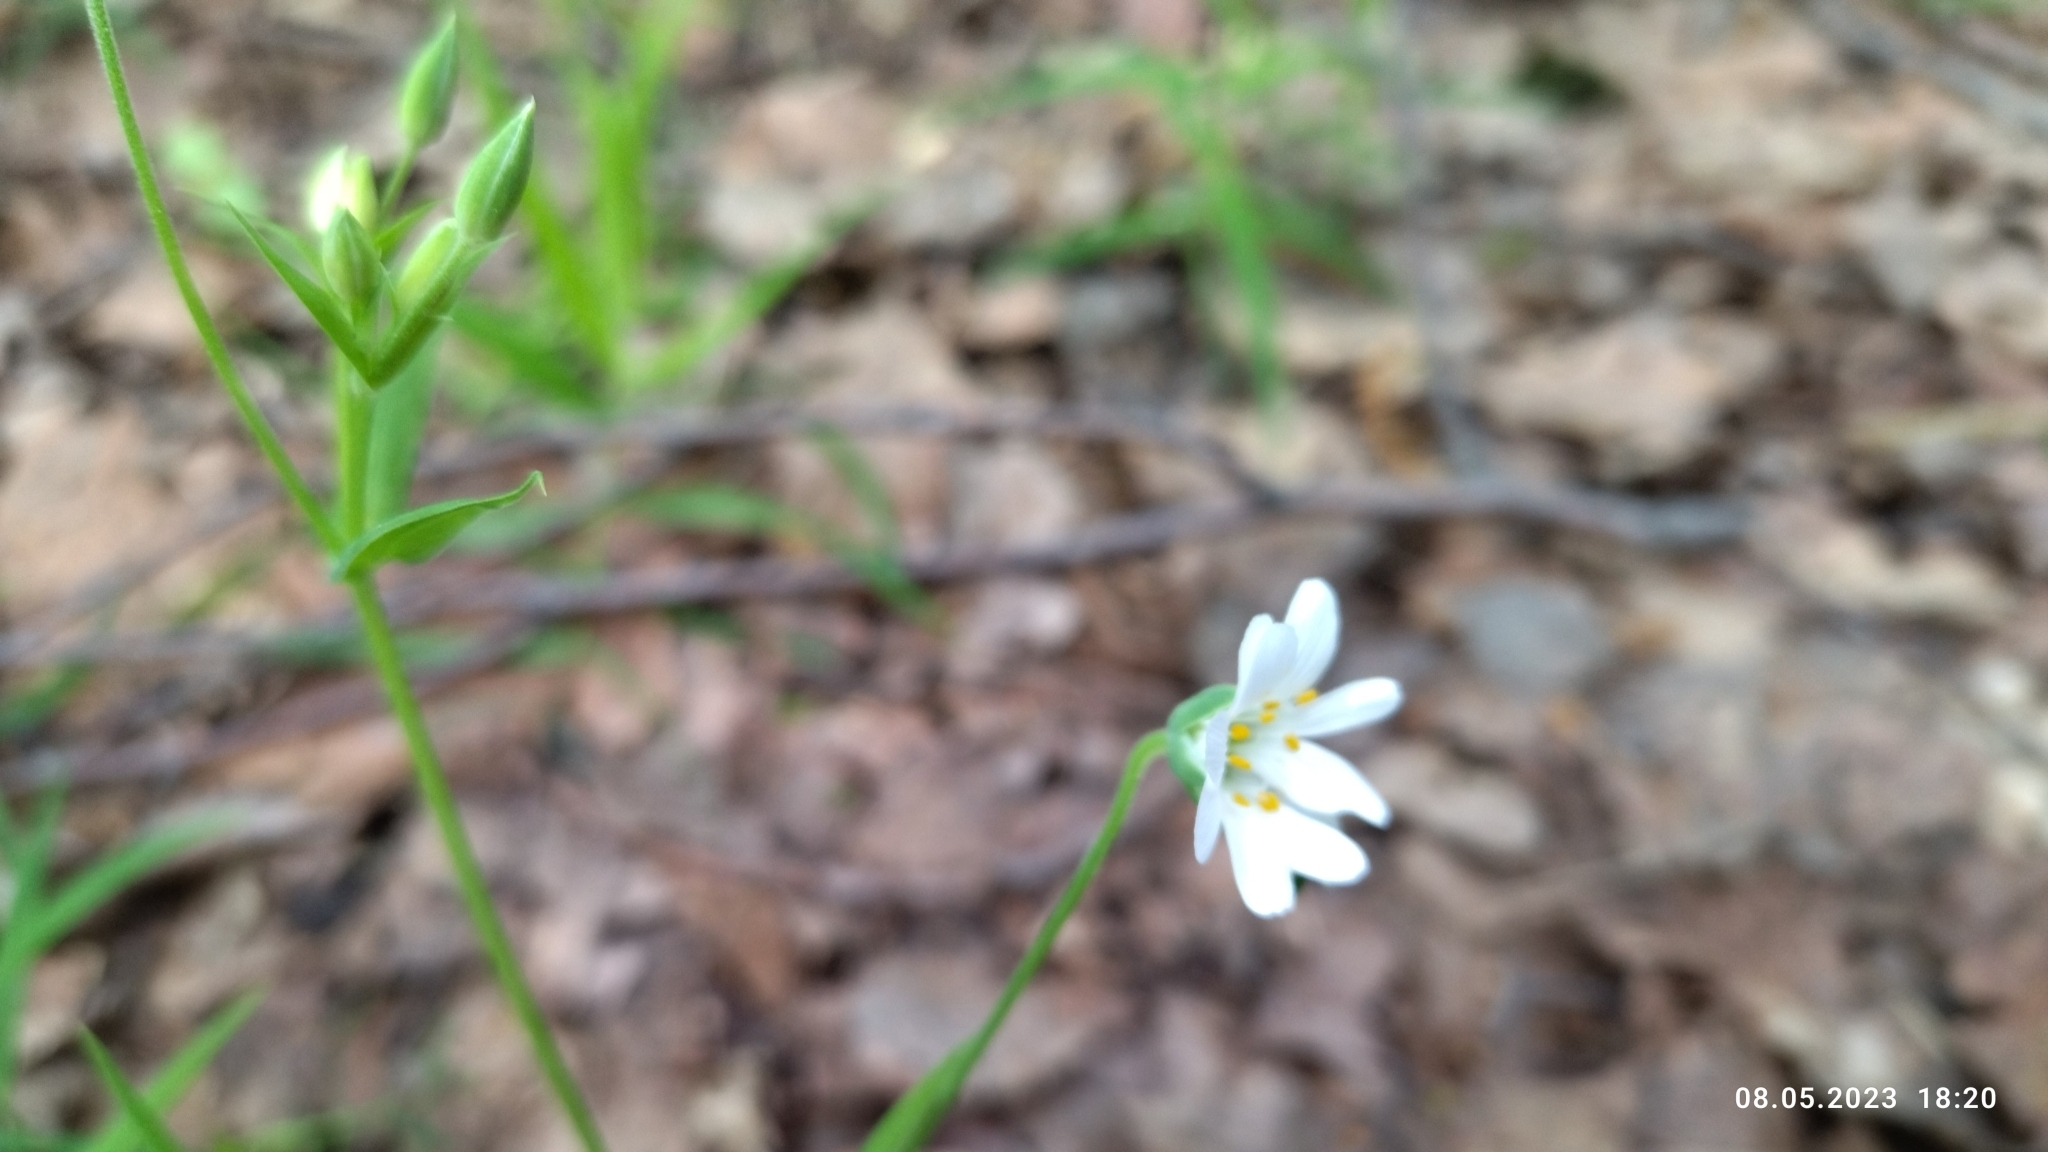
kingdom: Plantae
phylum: Tracheophyta
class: Magnoliopsida
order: Caryophyllales
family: Caryophyllaceae
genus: Rabelera
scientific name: Rabelera holostea
